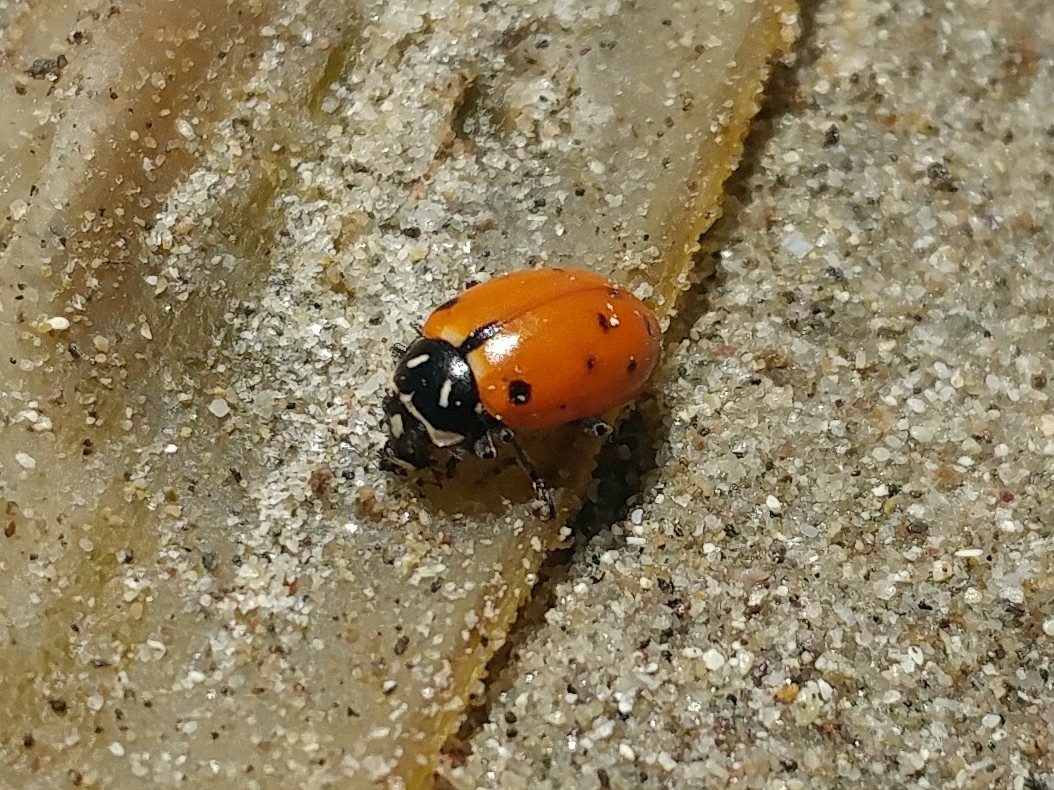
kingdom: Animalia
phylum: Arthropoda
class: Insecta
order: Coleoptera
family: Coccinellidae
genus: Hippodamia
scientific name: Hippodamia convergens
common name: Convergent lady beetle
